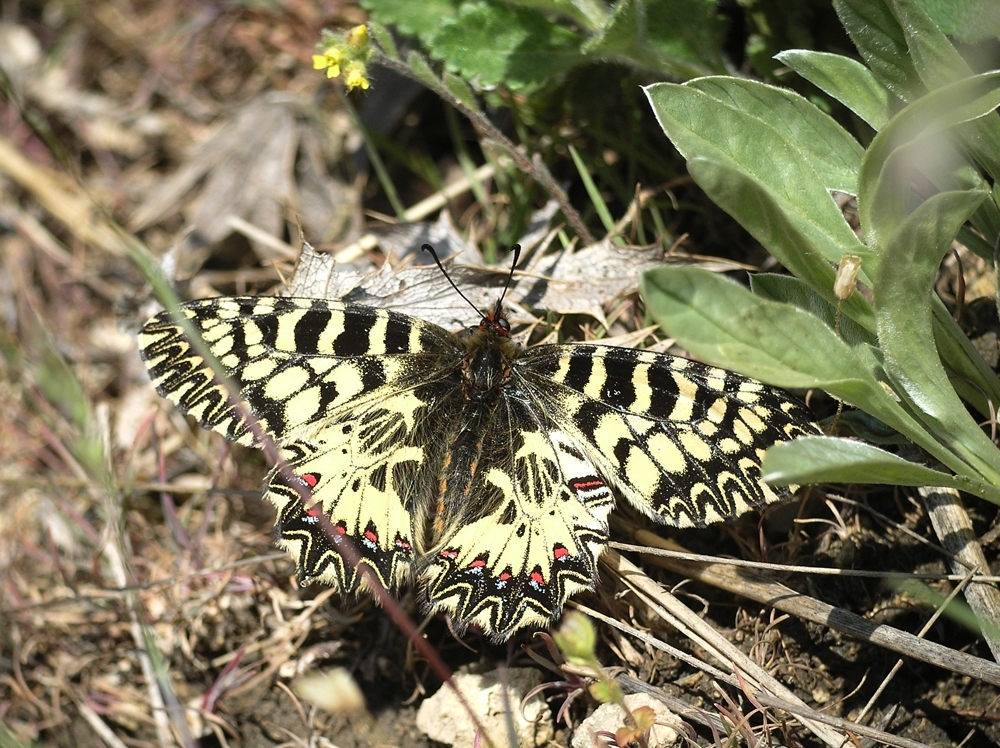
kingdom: Animalia
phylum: Arthropoda
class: Insecta
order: Lepidoptera
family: Papilionidae
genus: Zerynthia
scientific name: Zerynthia polyxena
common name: Southern festoon
